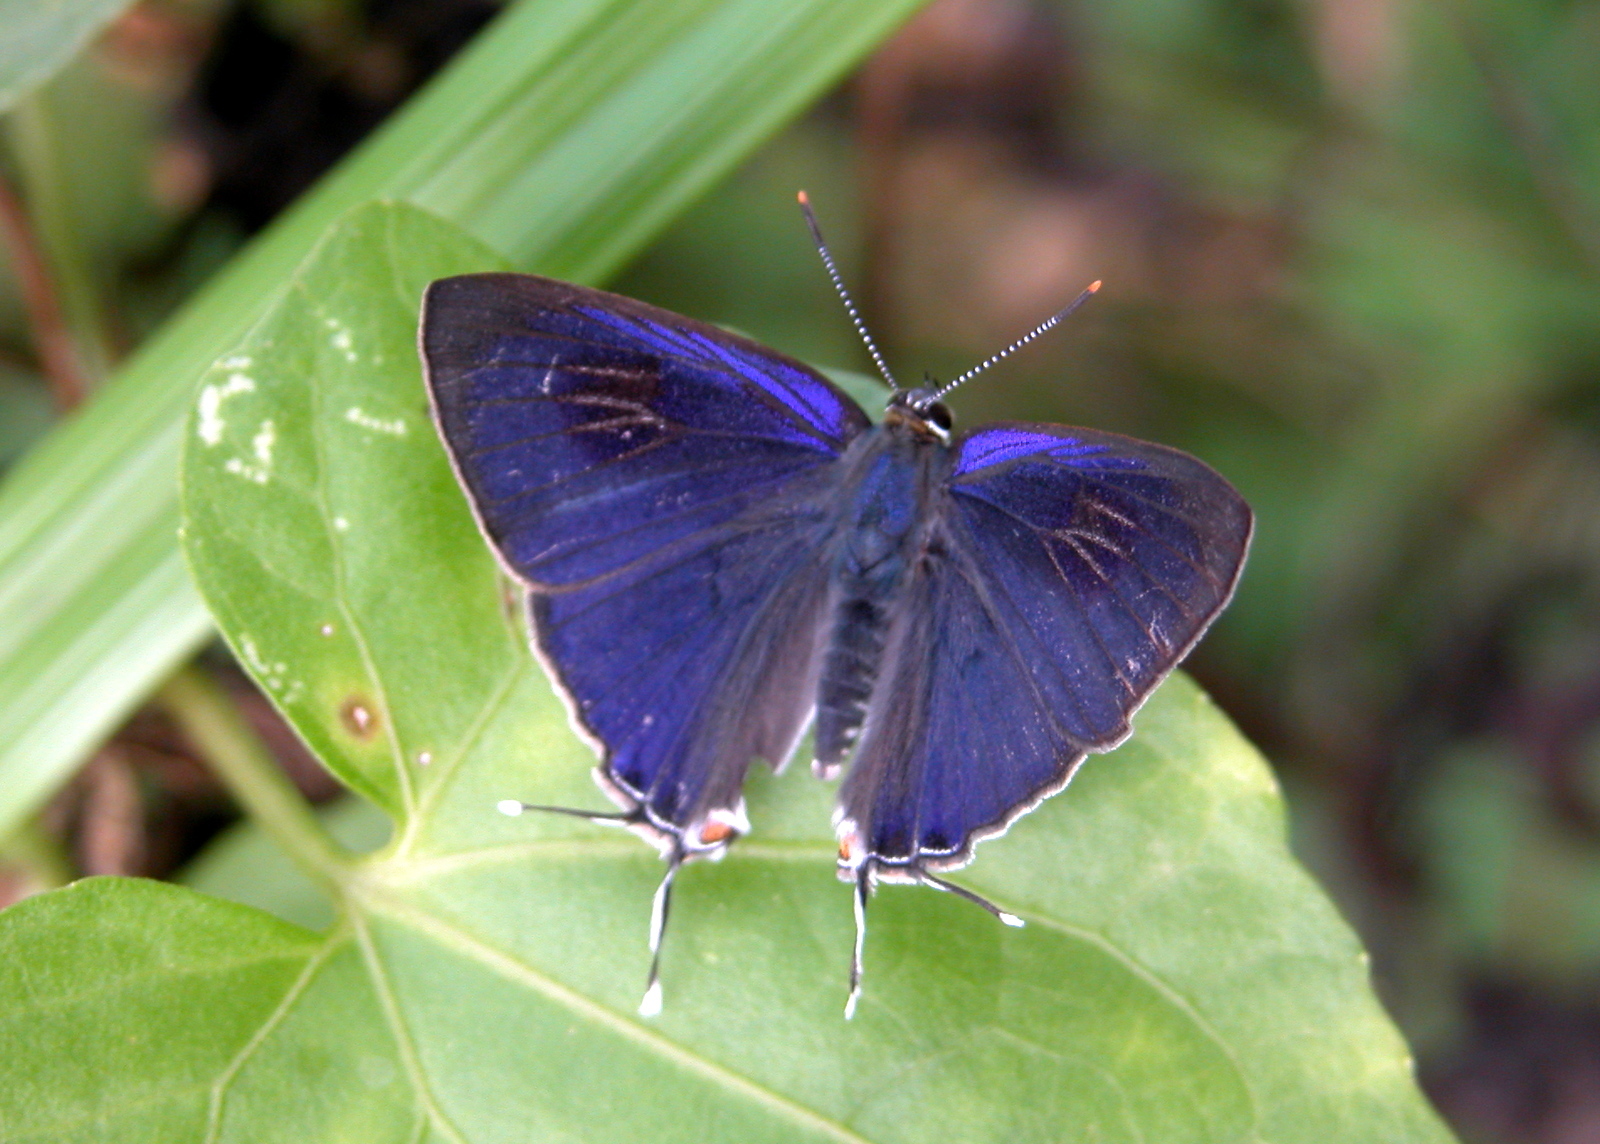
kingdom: Animalia
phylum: Arthropoda
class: Insecta
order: Lepidoptera
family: Lycaenidae
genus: Hypolycaena
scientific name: Hypolycaena erylus
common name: Common tit
